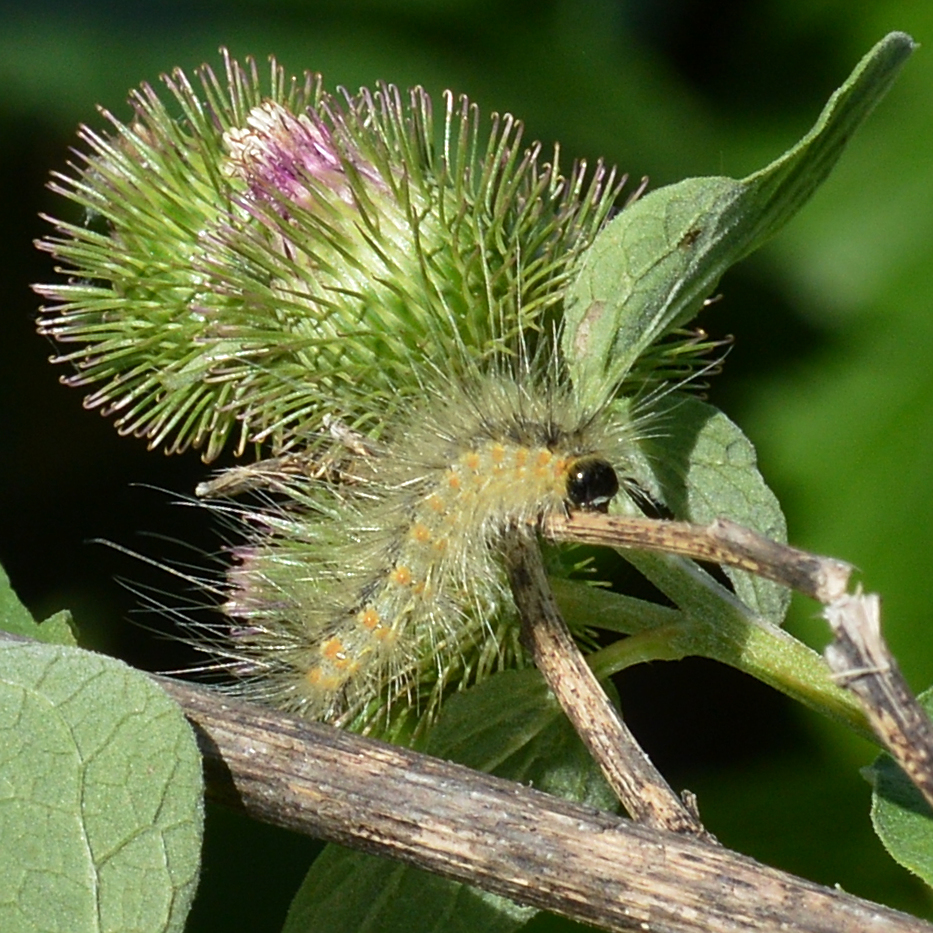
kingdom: Animalia
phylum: Arthropoda
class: Insecta
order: Lepidoptera
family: Erebidae
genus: Hyphantria
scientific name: Hyphantria cunea
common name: American white moth
